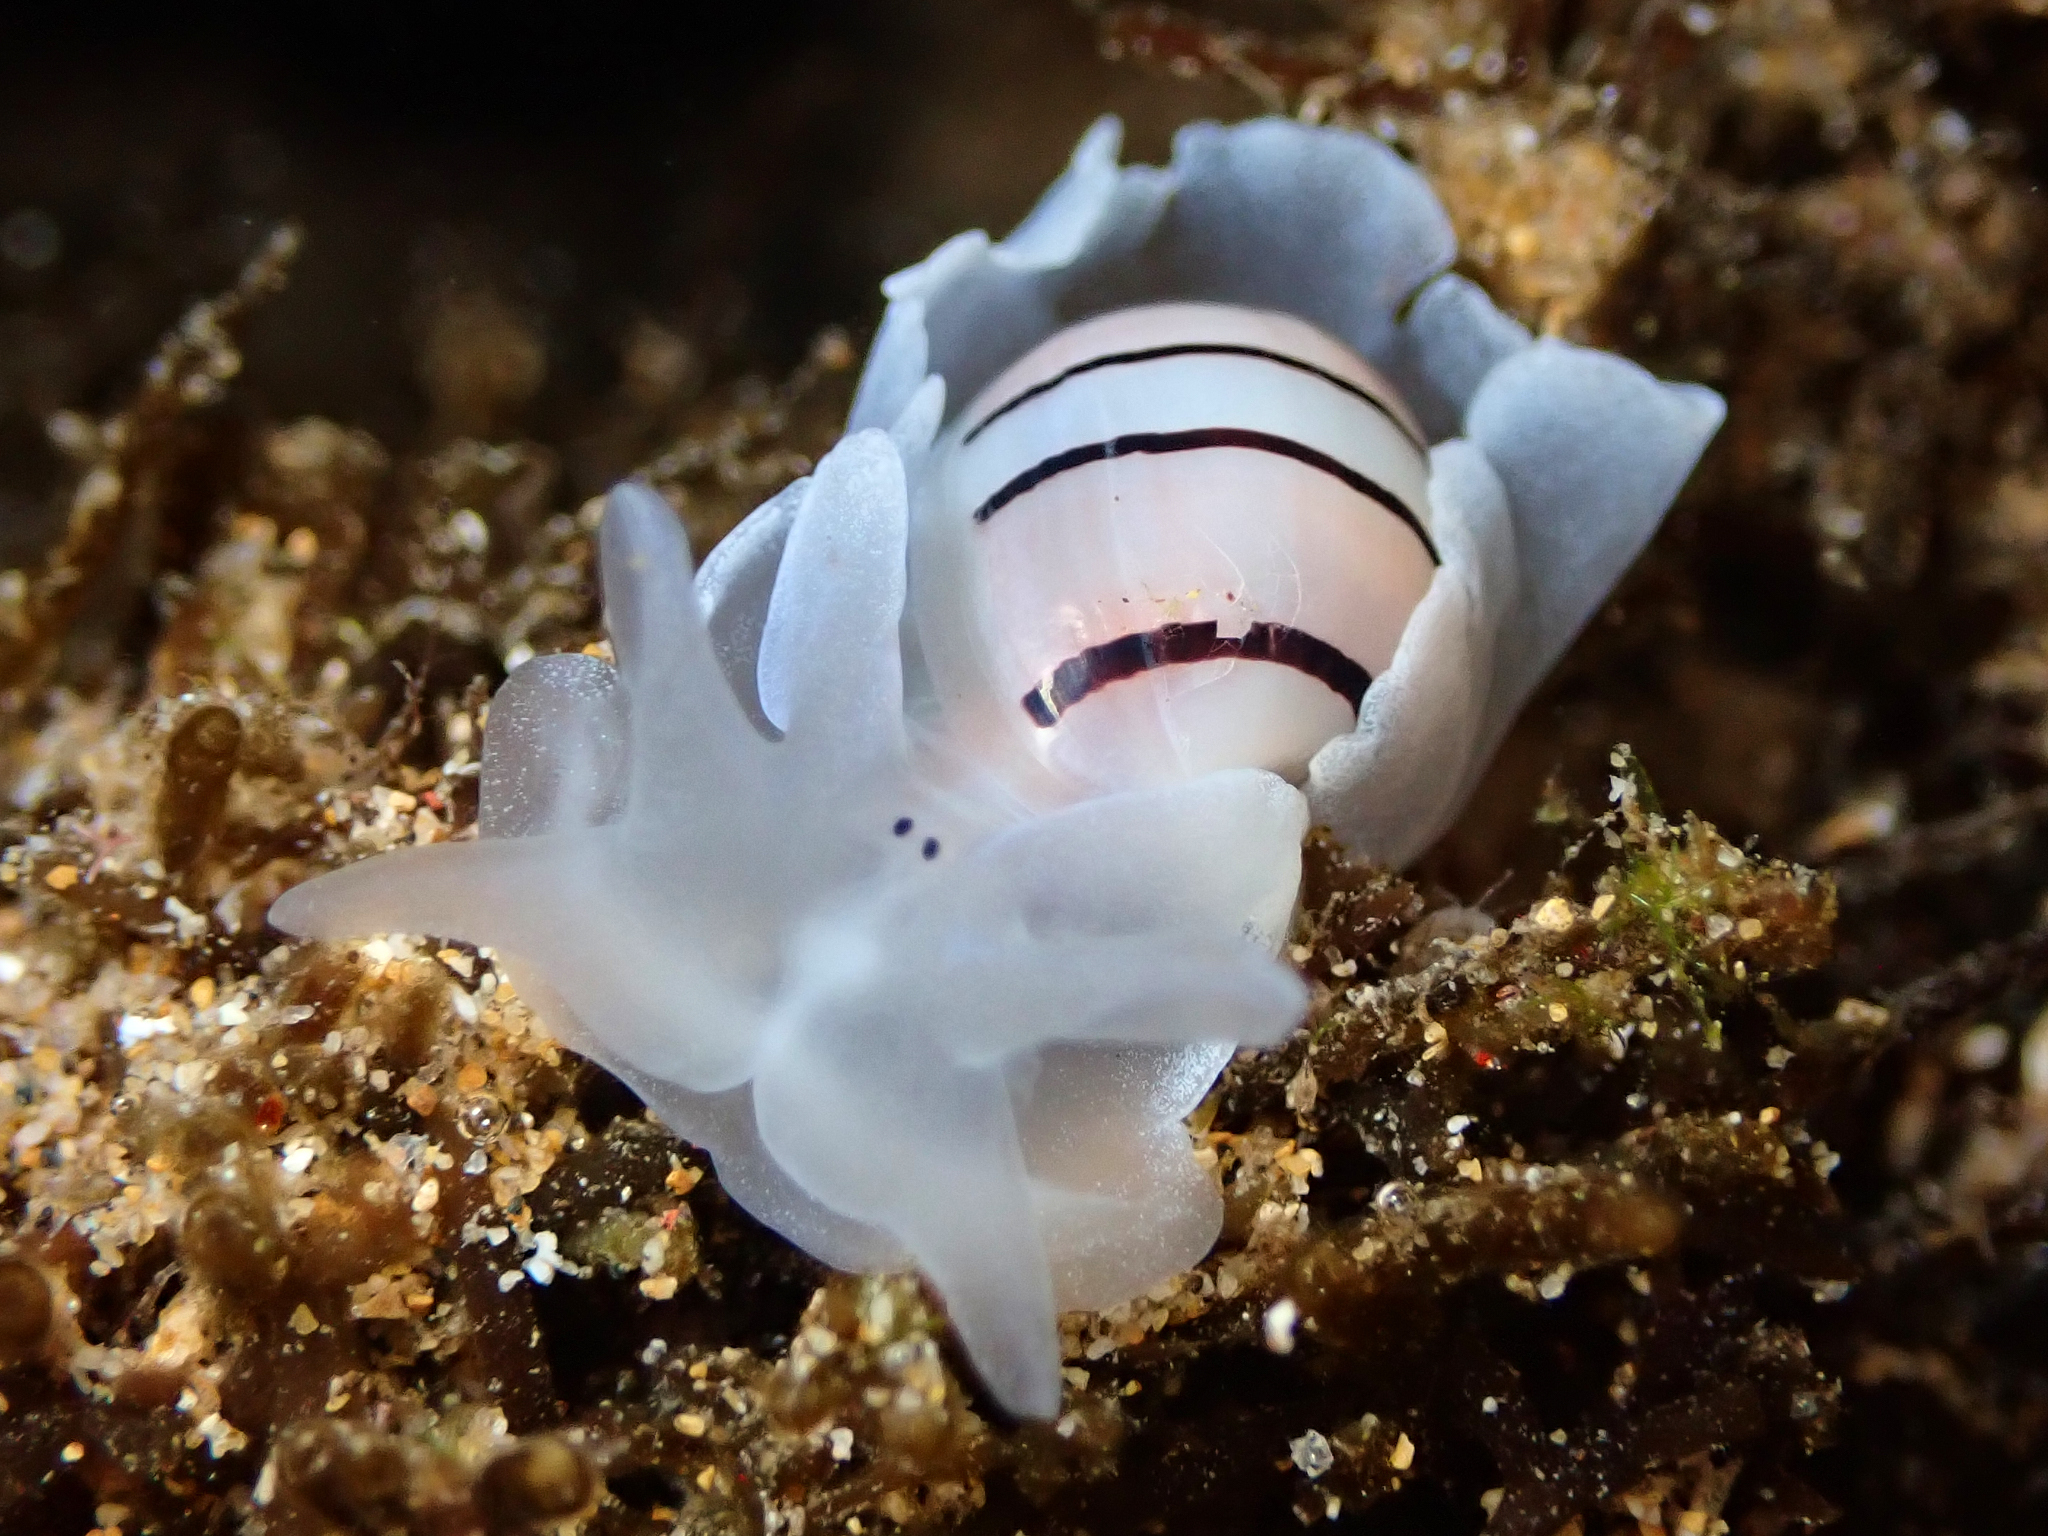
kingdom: Animalia
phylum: Mollusca
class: Gastropoda
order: Cephalaspidea
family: Aplustridae
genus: Aplustrum
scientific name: Aplustrum amplustre
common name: Royal paperbubble
